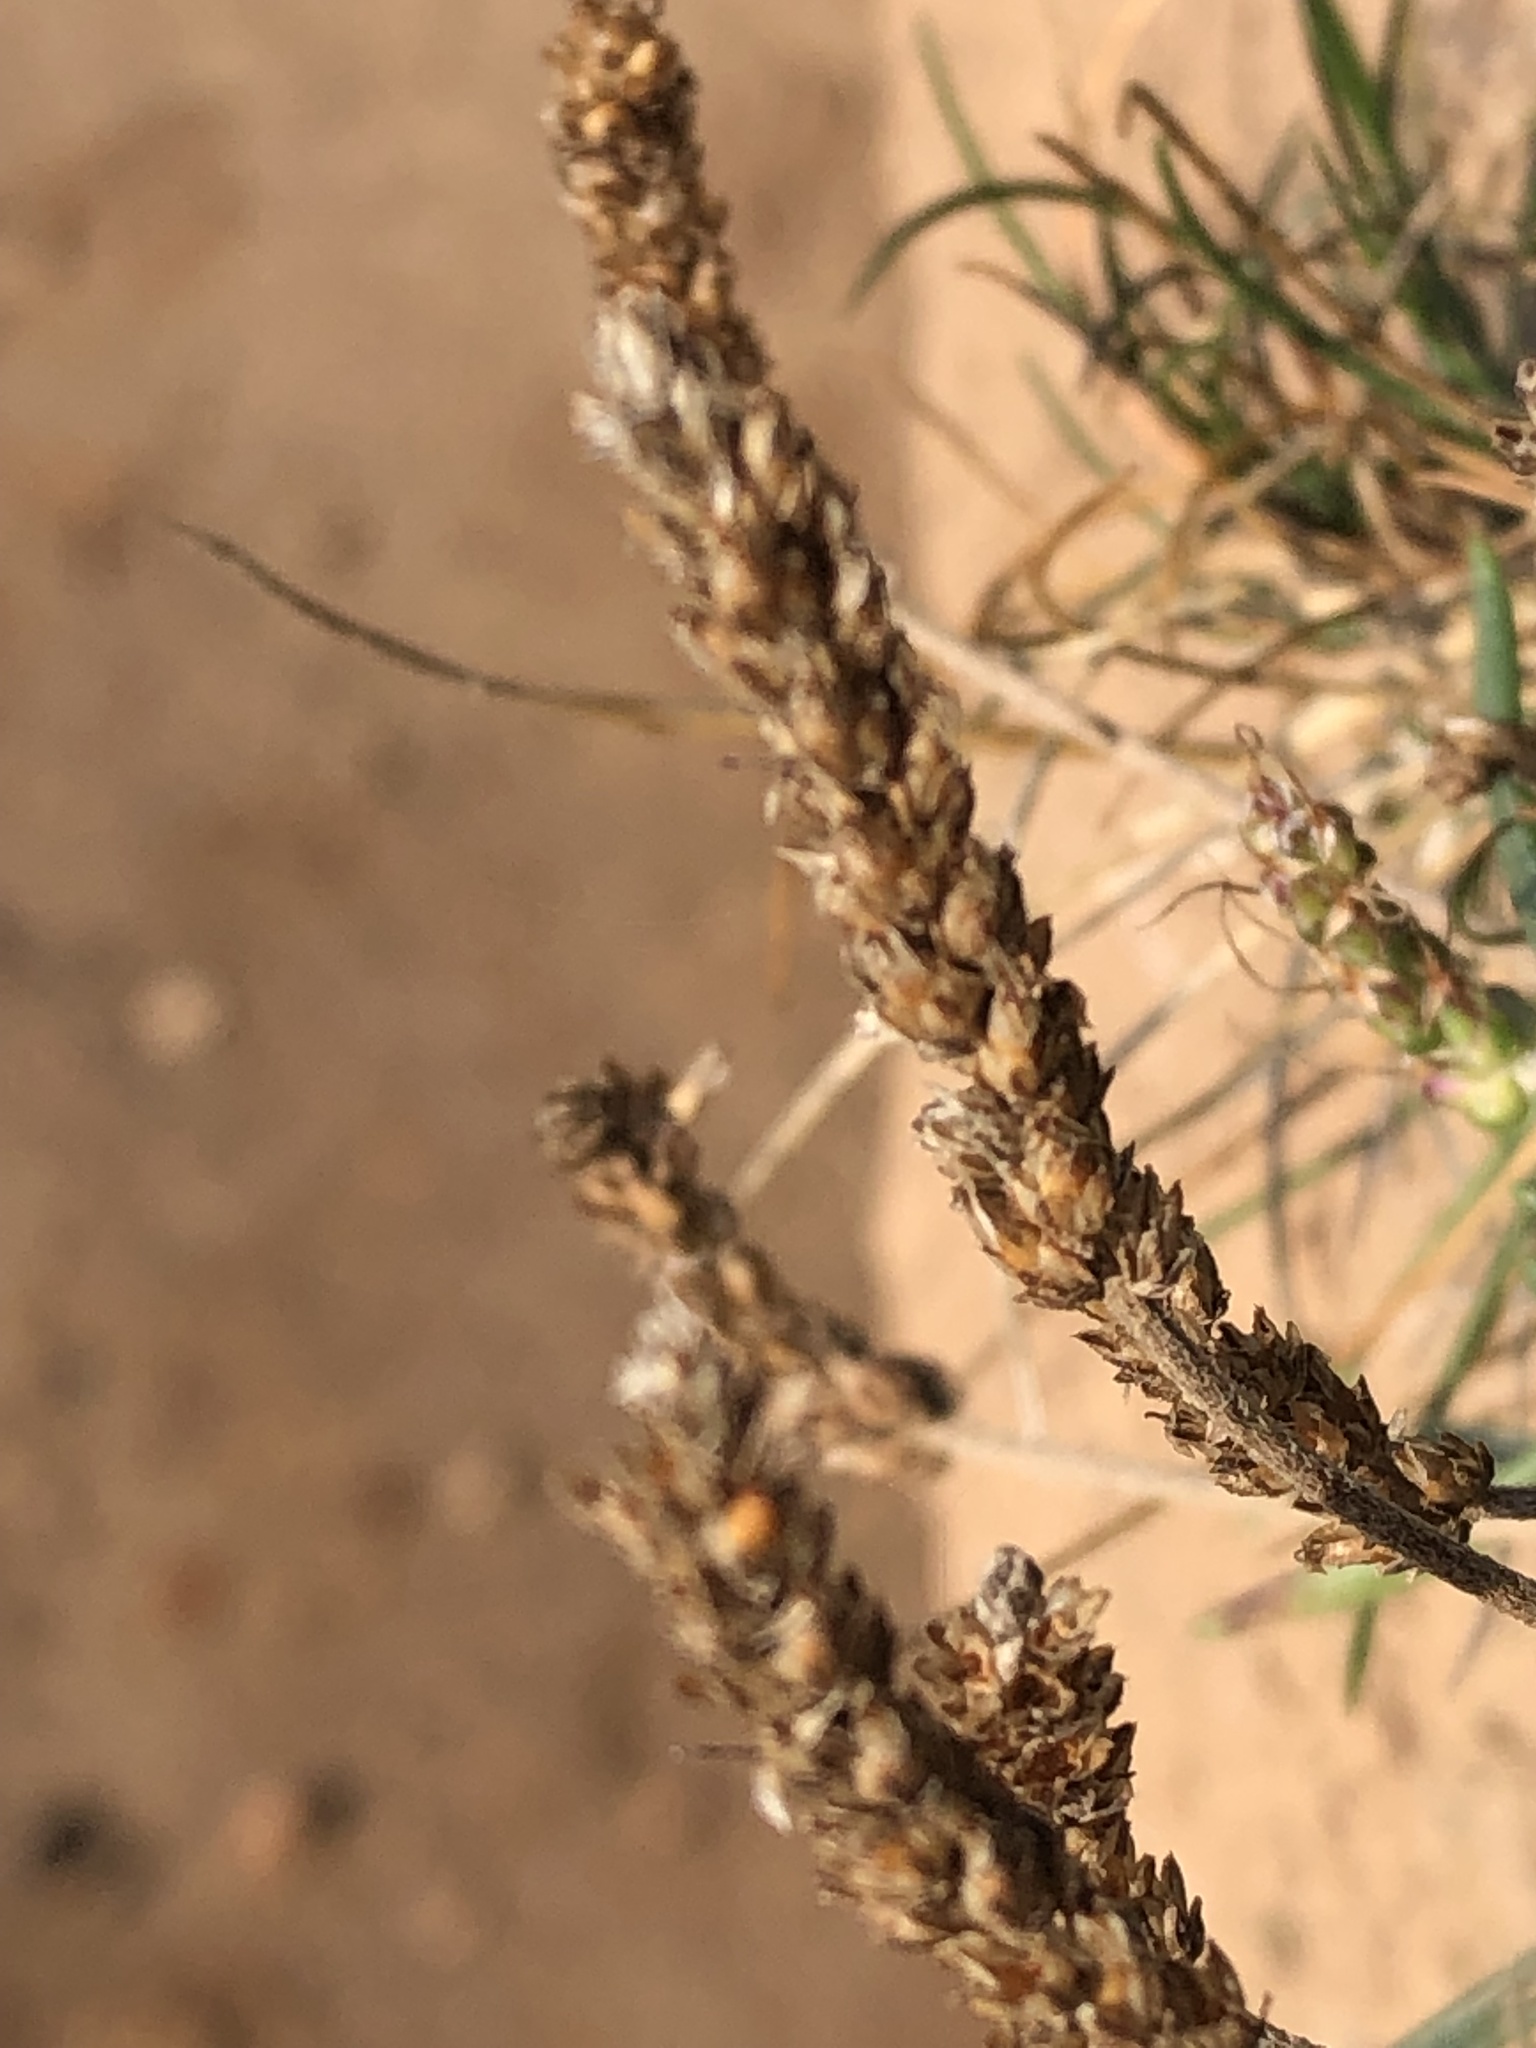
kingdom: Plantae
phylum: Tracheophyta
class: Magnoliopsida
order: Lamiales
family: Plantaginaceae
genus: Plantago
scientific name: Plantago maritima
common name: Sea plantain
